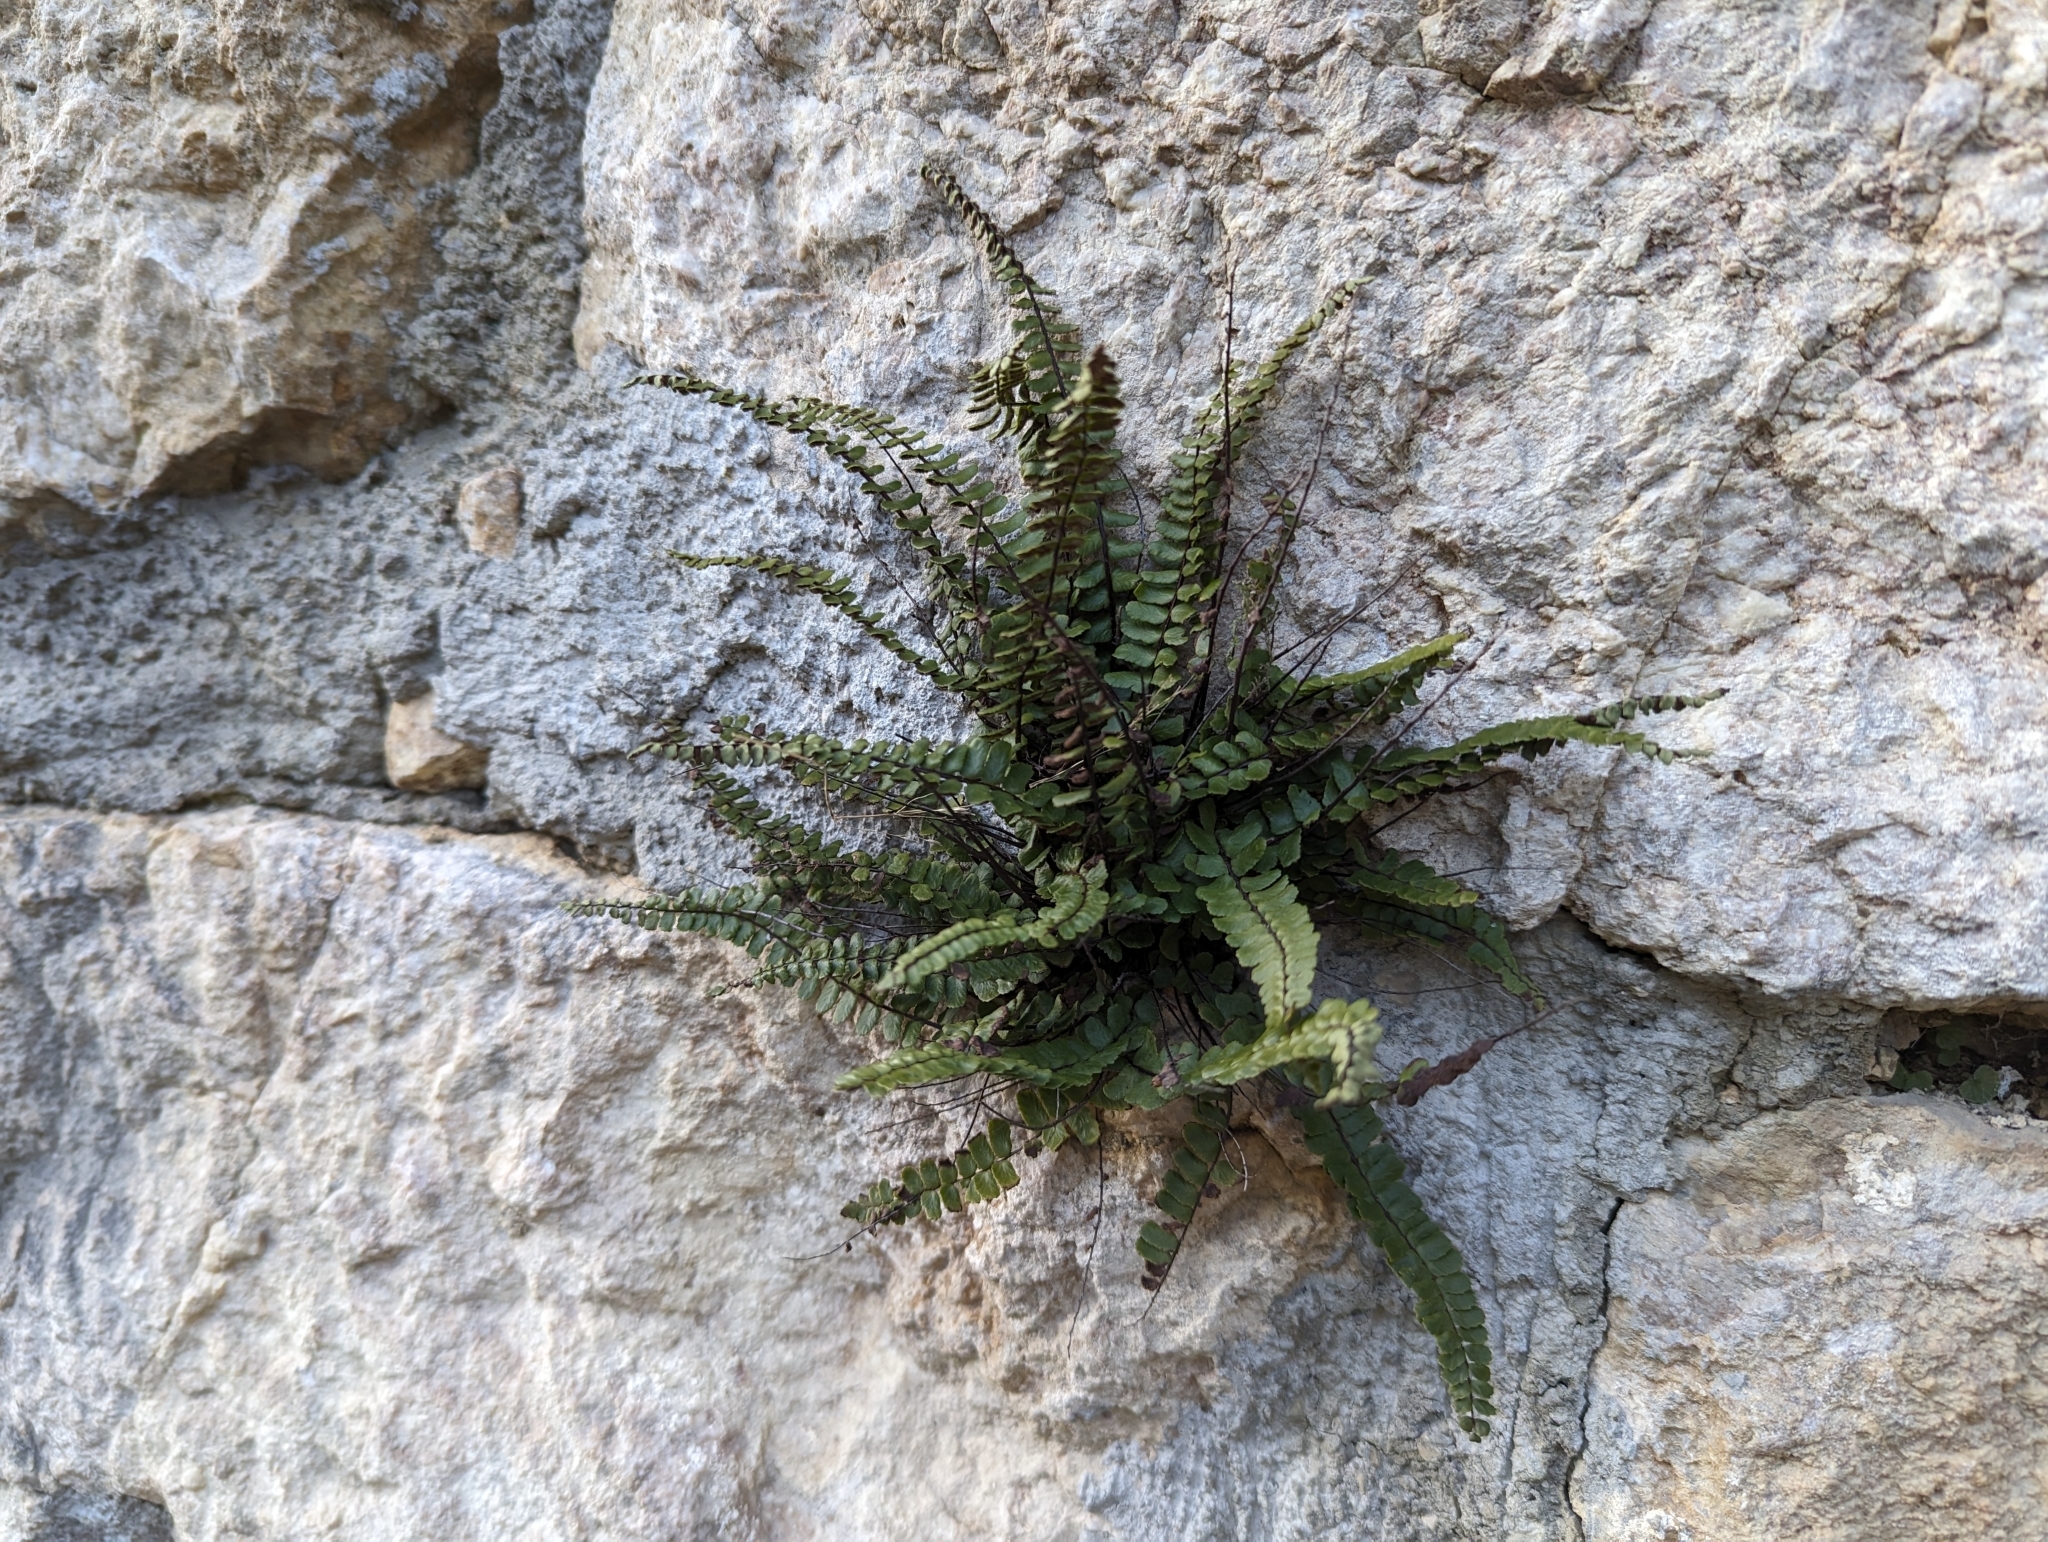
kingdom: Plantae
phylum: Tracheophyta
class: Polypodiopsida
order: Polypodiales
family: Aspleniaceae
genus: Asplenium
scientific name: Asplenium trichomanes
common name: Maidenhair spleenwort
